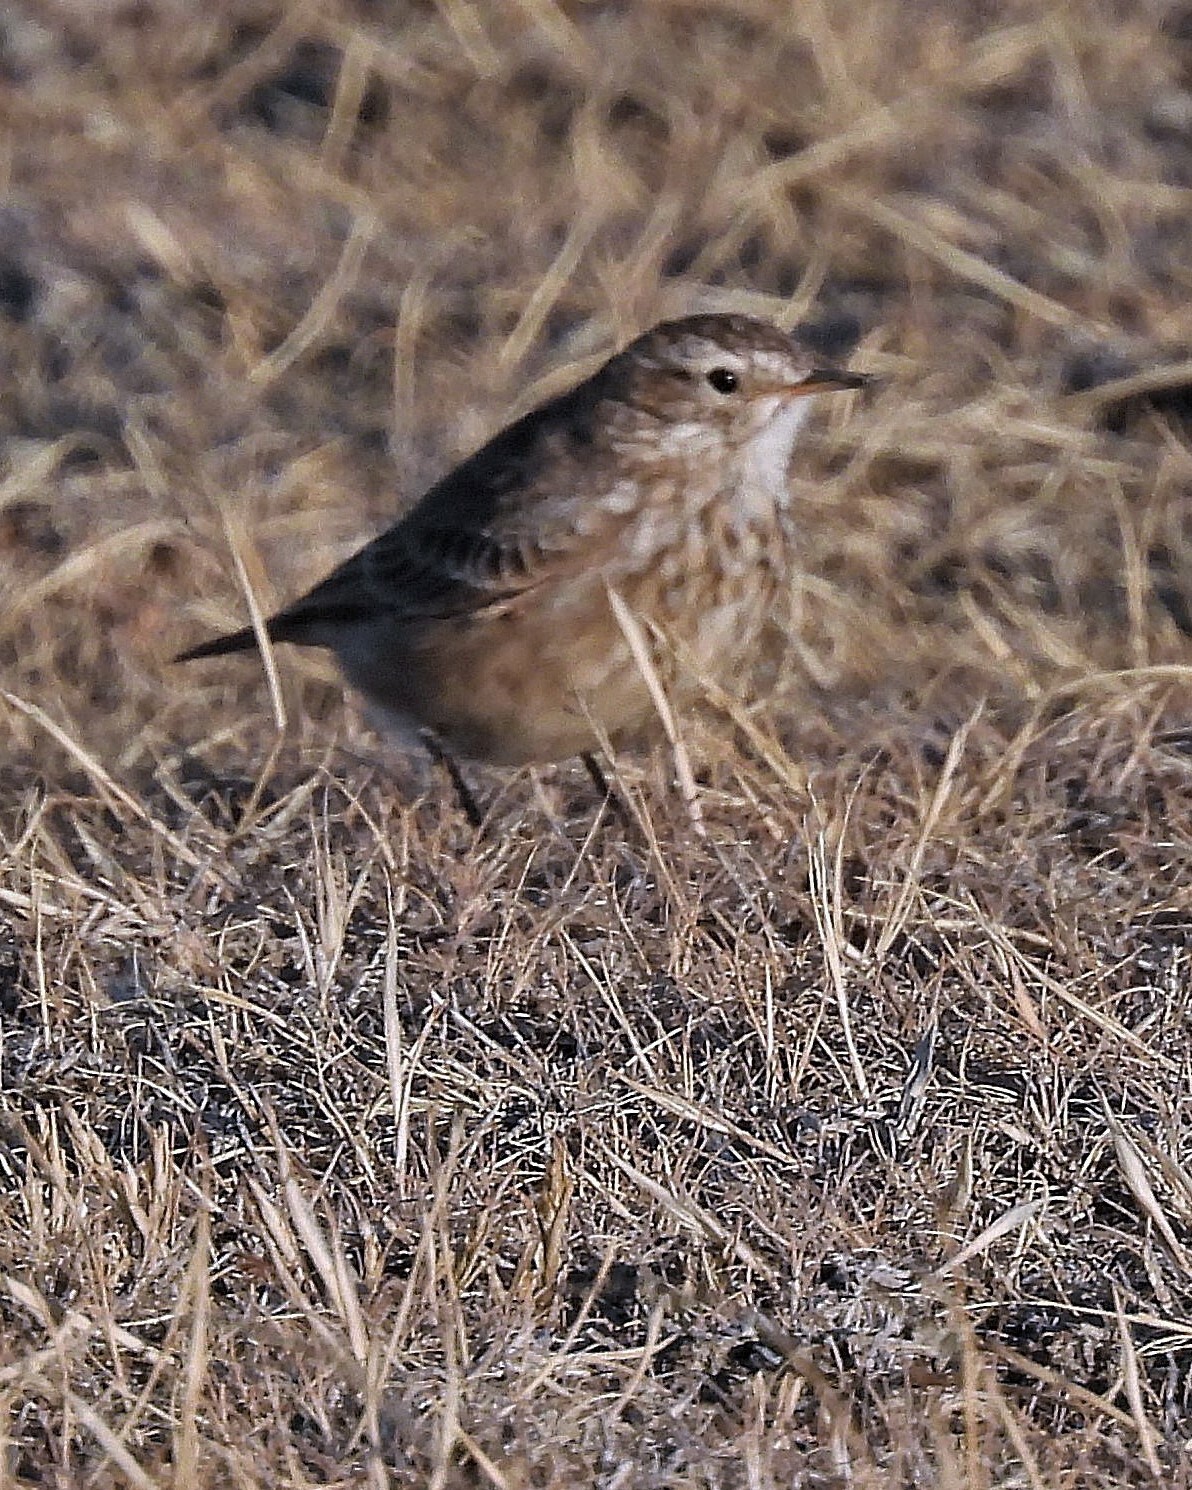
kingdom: Animalia
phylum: Chordata
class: Aves
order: Passeriformes
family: Furnariidae
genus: Geositta
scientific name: Geositta antarctica
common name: Short-billed miner
